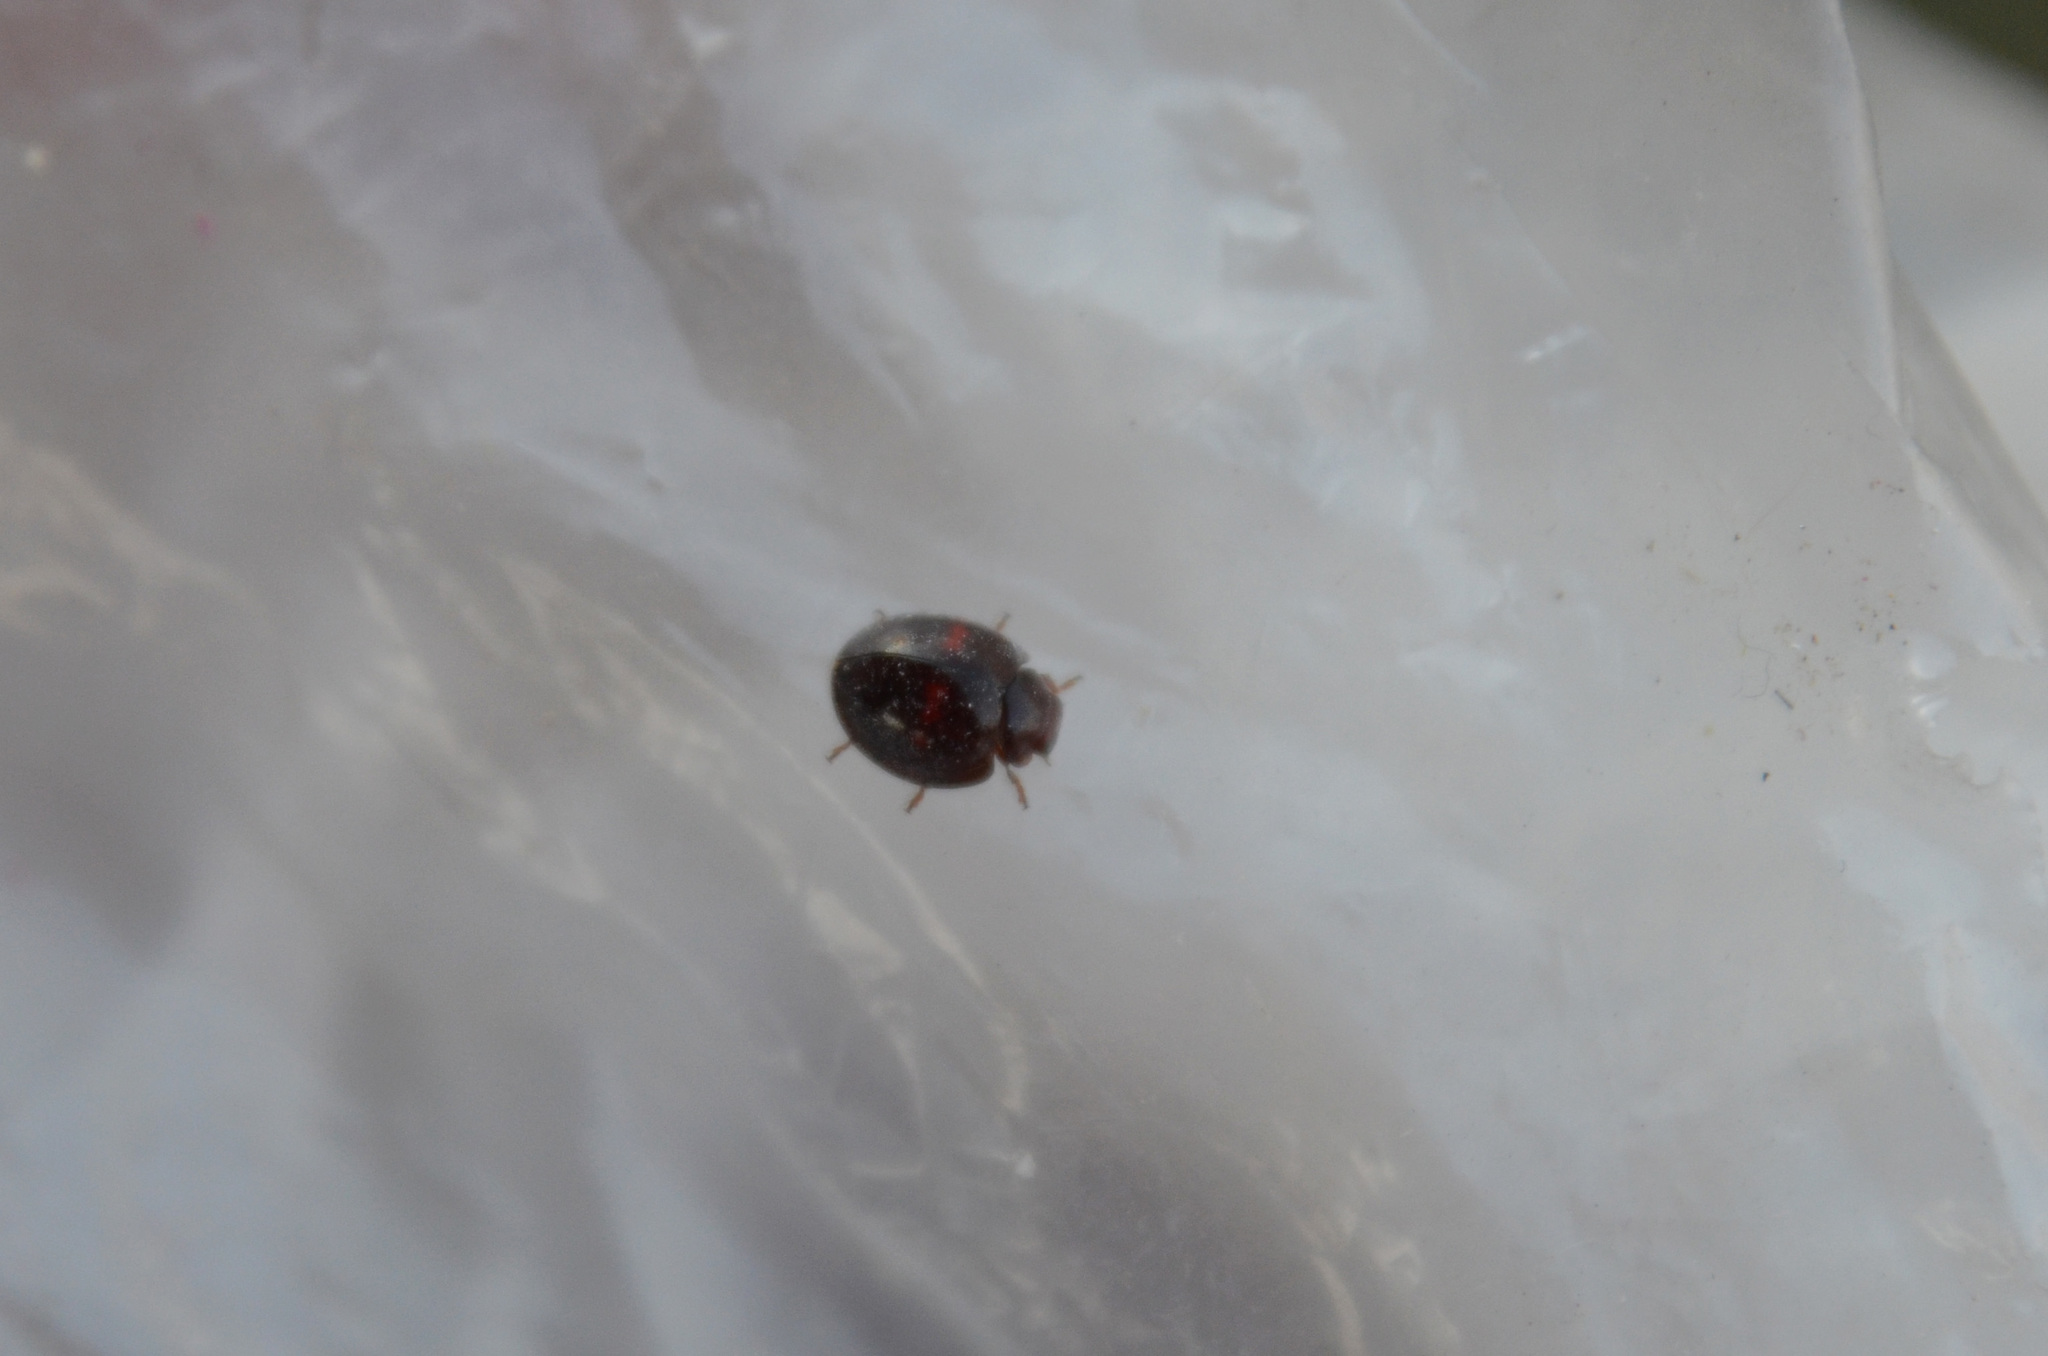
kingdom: Animalia
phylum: Arthropoda
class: Insecta
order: Coleoptera
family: Coccinellidae
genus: Chilocorus
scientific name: Chilocorus bipustulatus
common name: Heather ladybird
